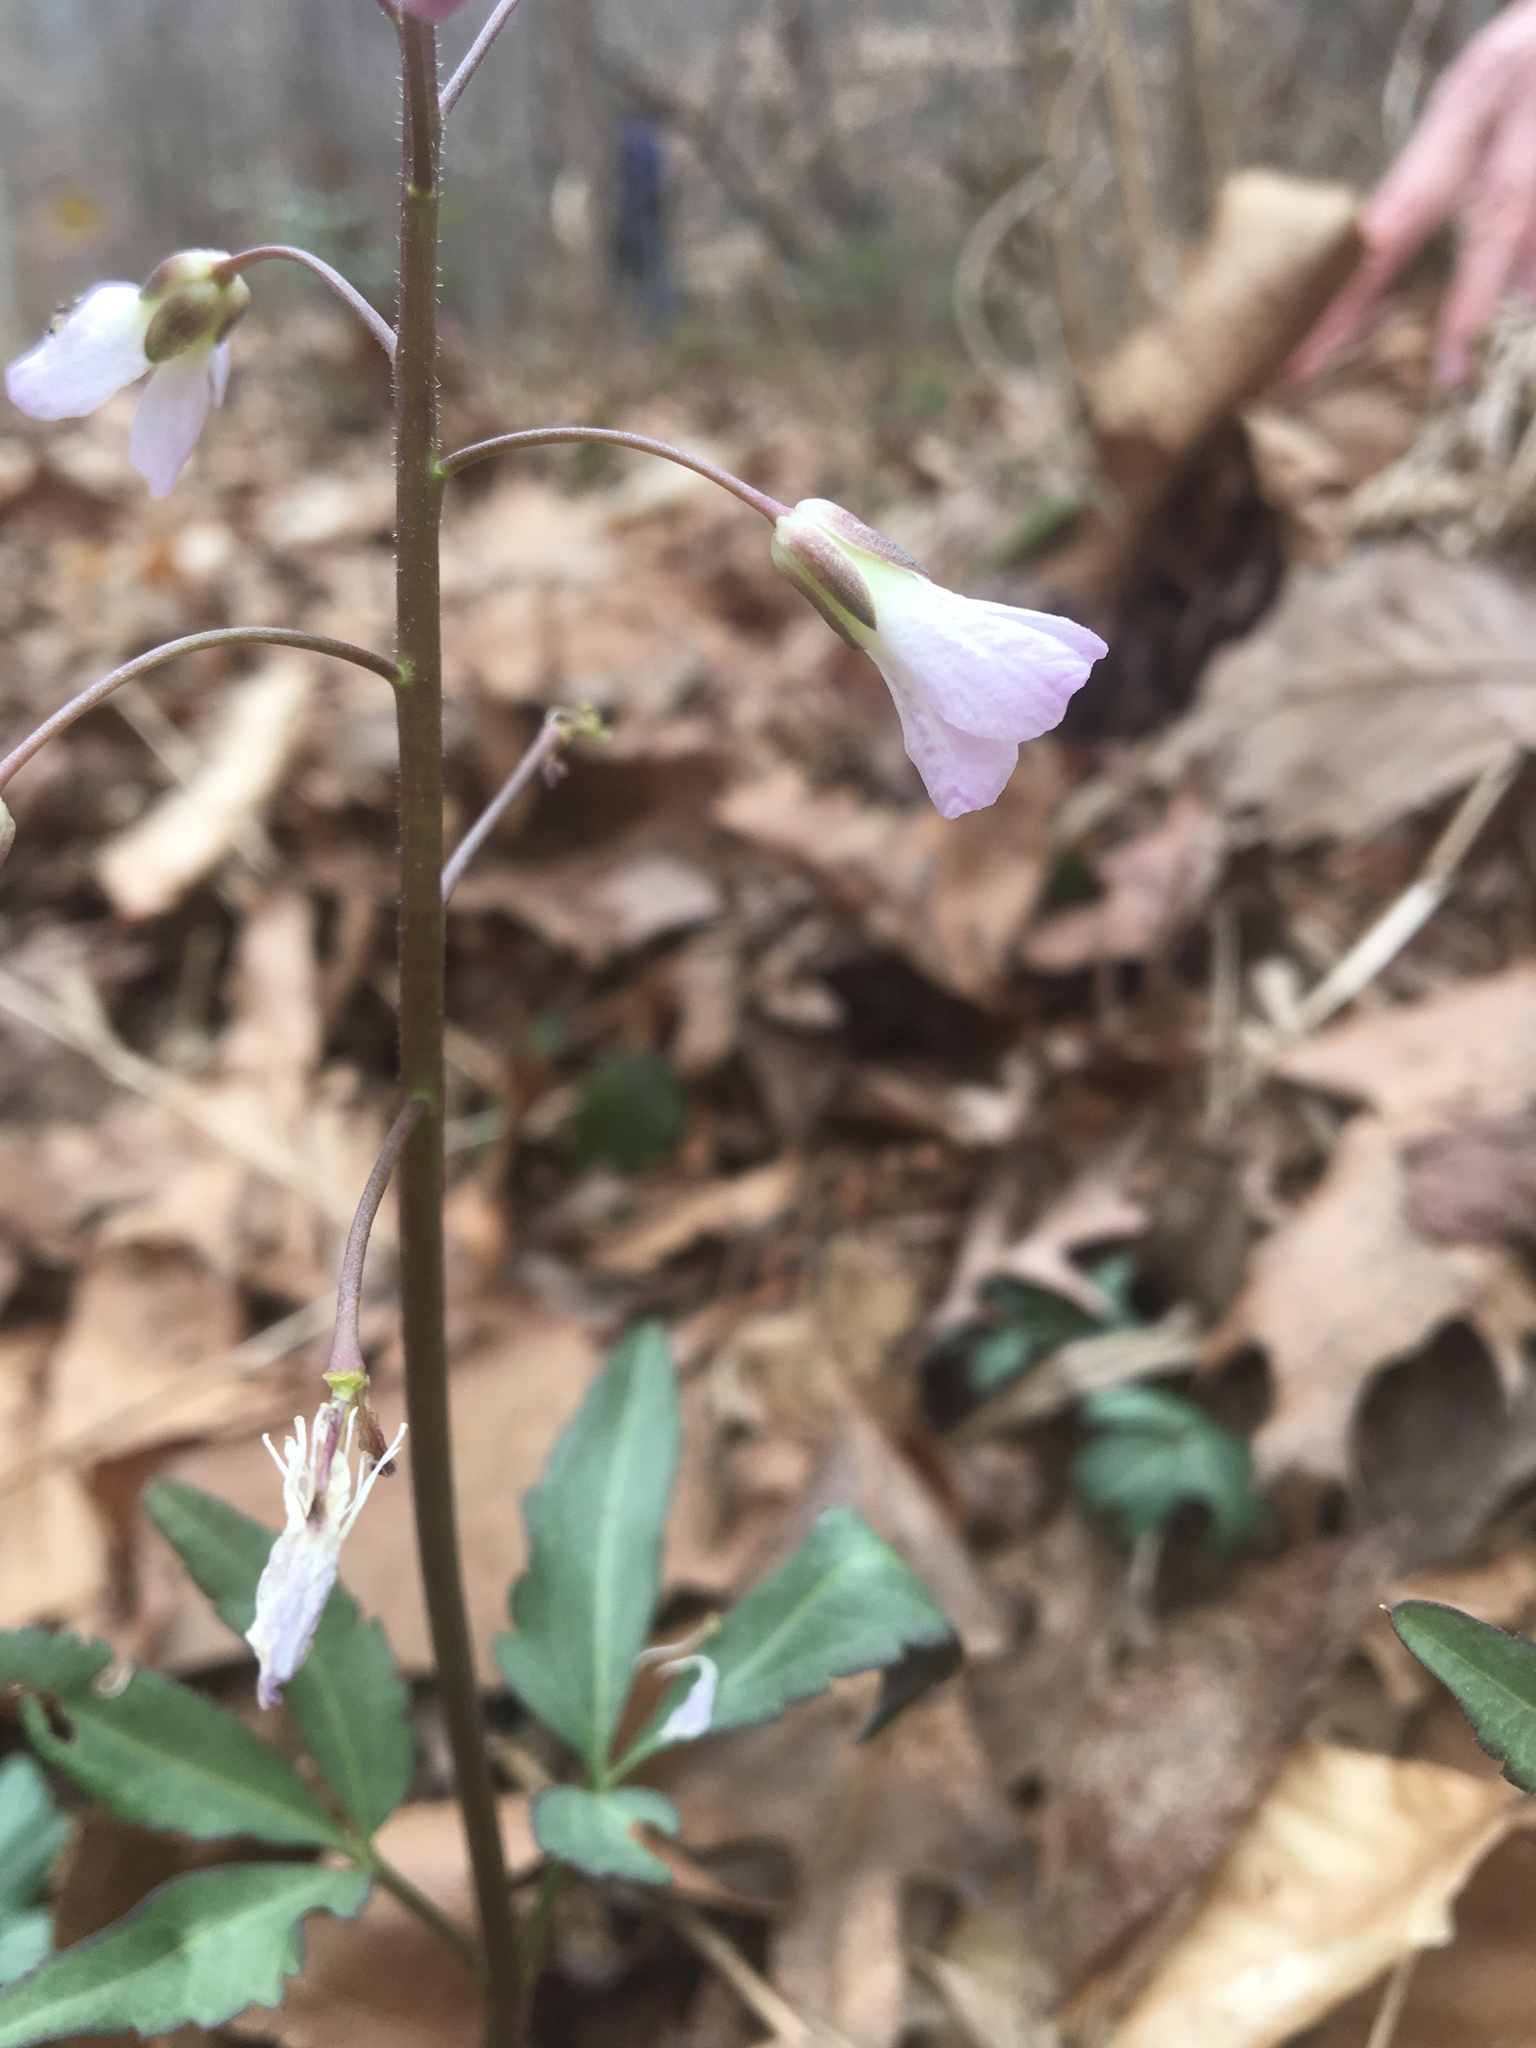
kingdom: Plantae
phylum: Tracheophyta
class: Magnoliopsida
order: Brassicales
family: Brassicaceae
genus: Cardamine
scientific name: Cardamine angustata
